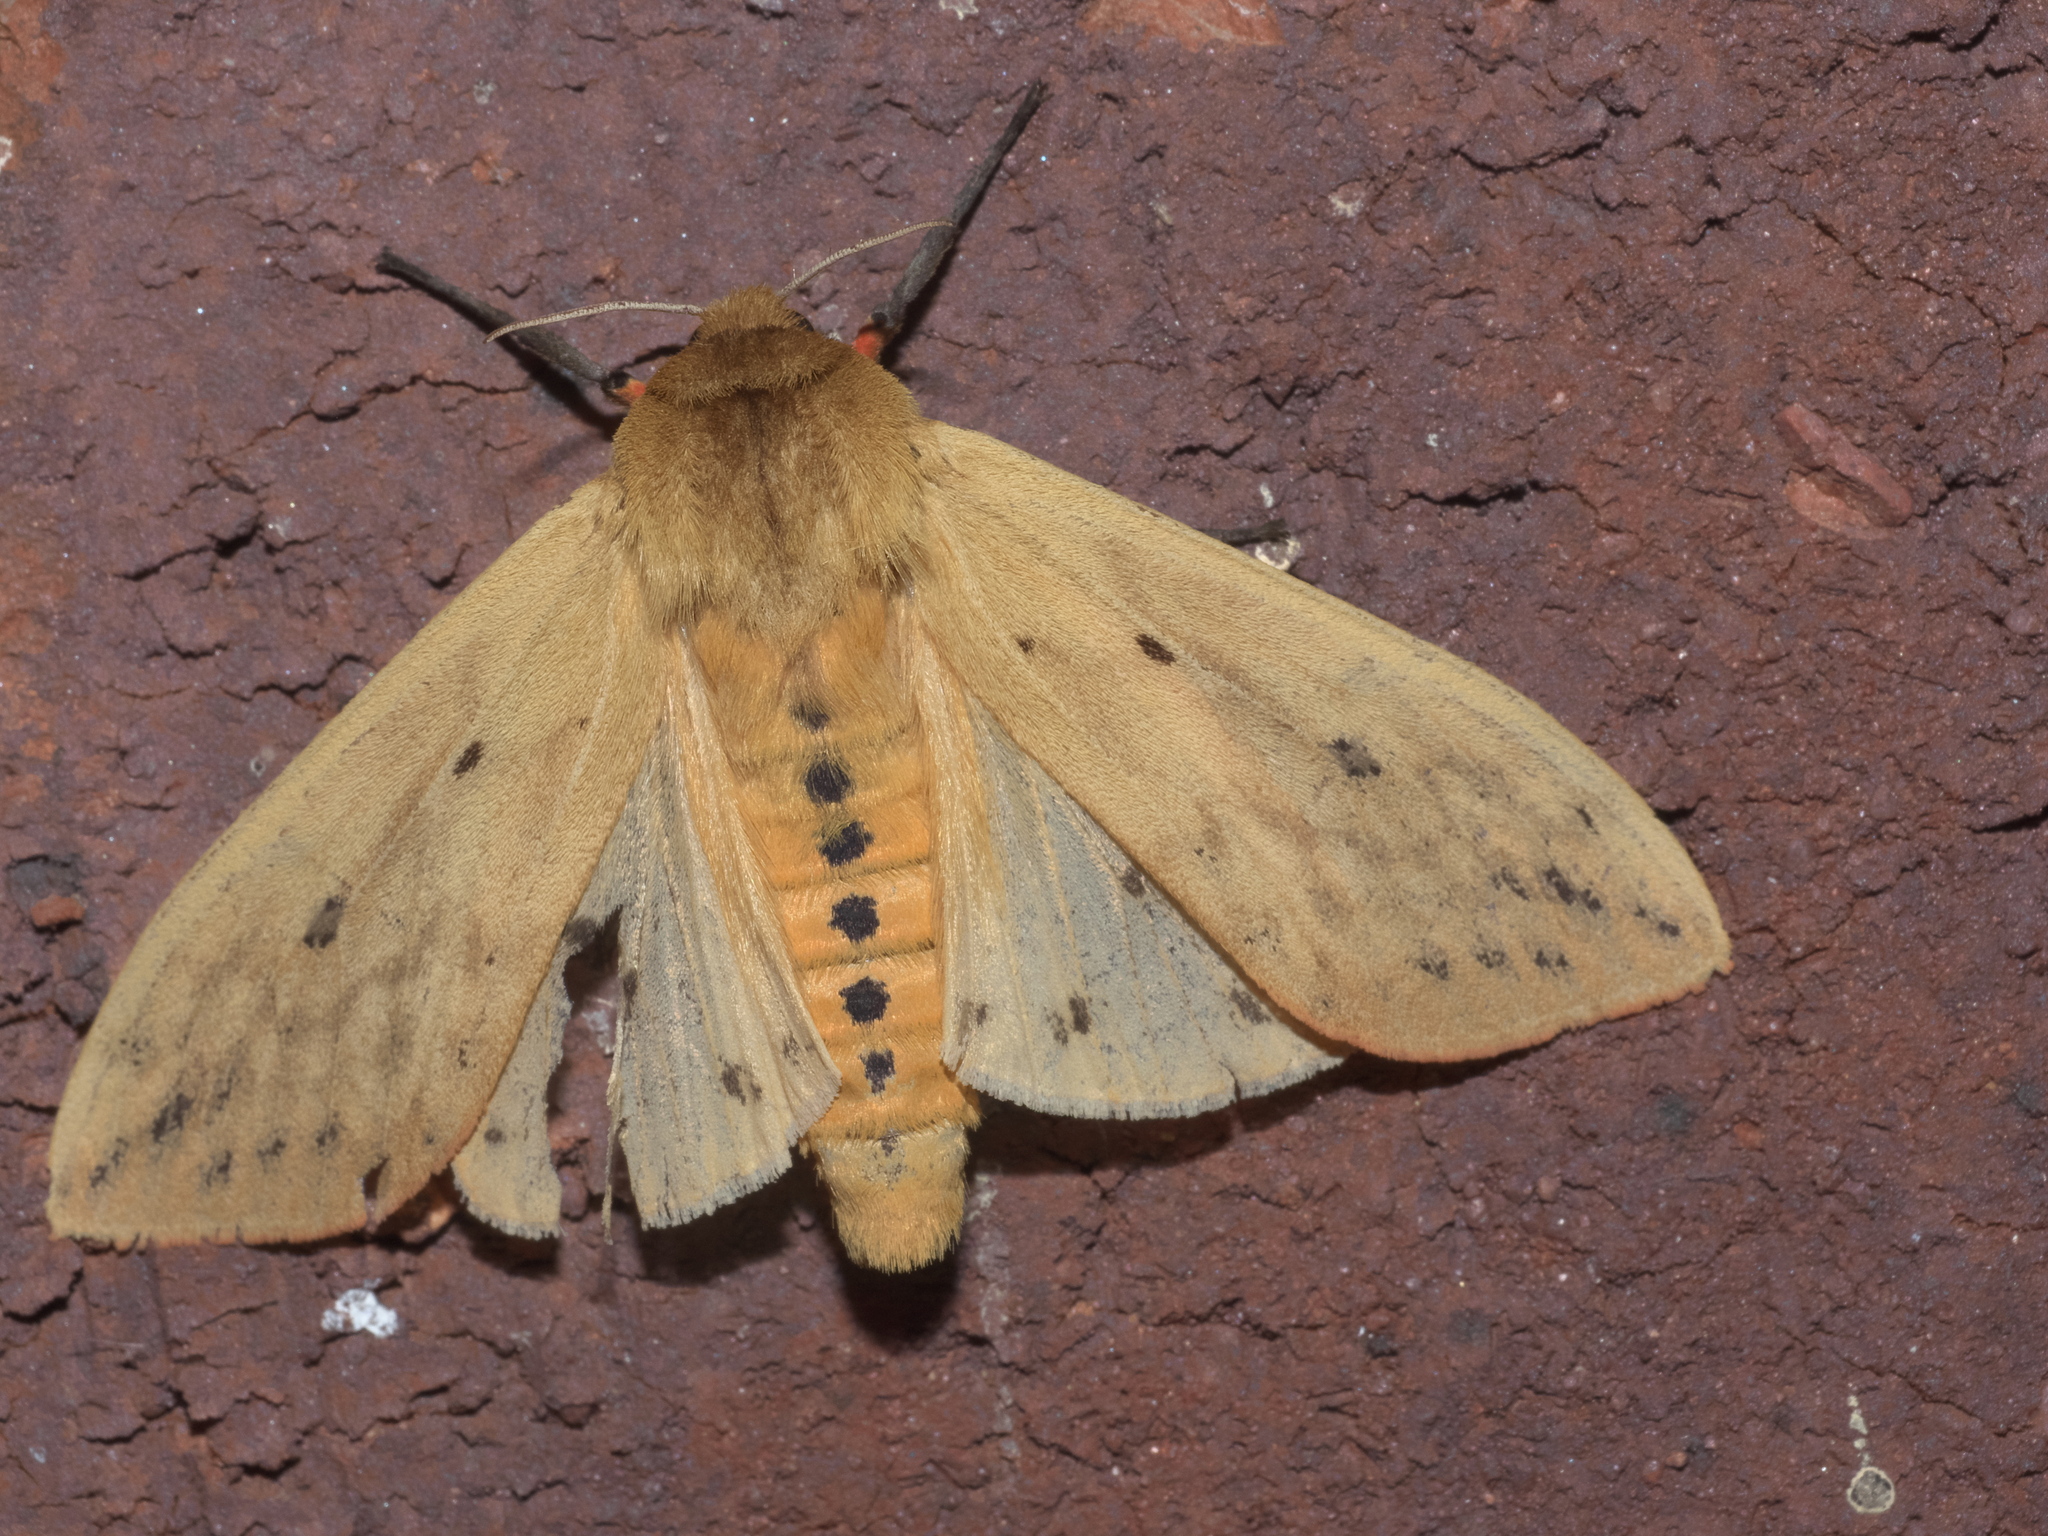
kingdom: Animalia
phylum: Arthropoda
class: Insecta
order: Lepidoptera
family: Erebidae
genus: Pyrrharctia
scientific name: Pyrrharctia isabella
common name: Isabella tiger moth
